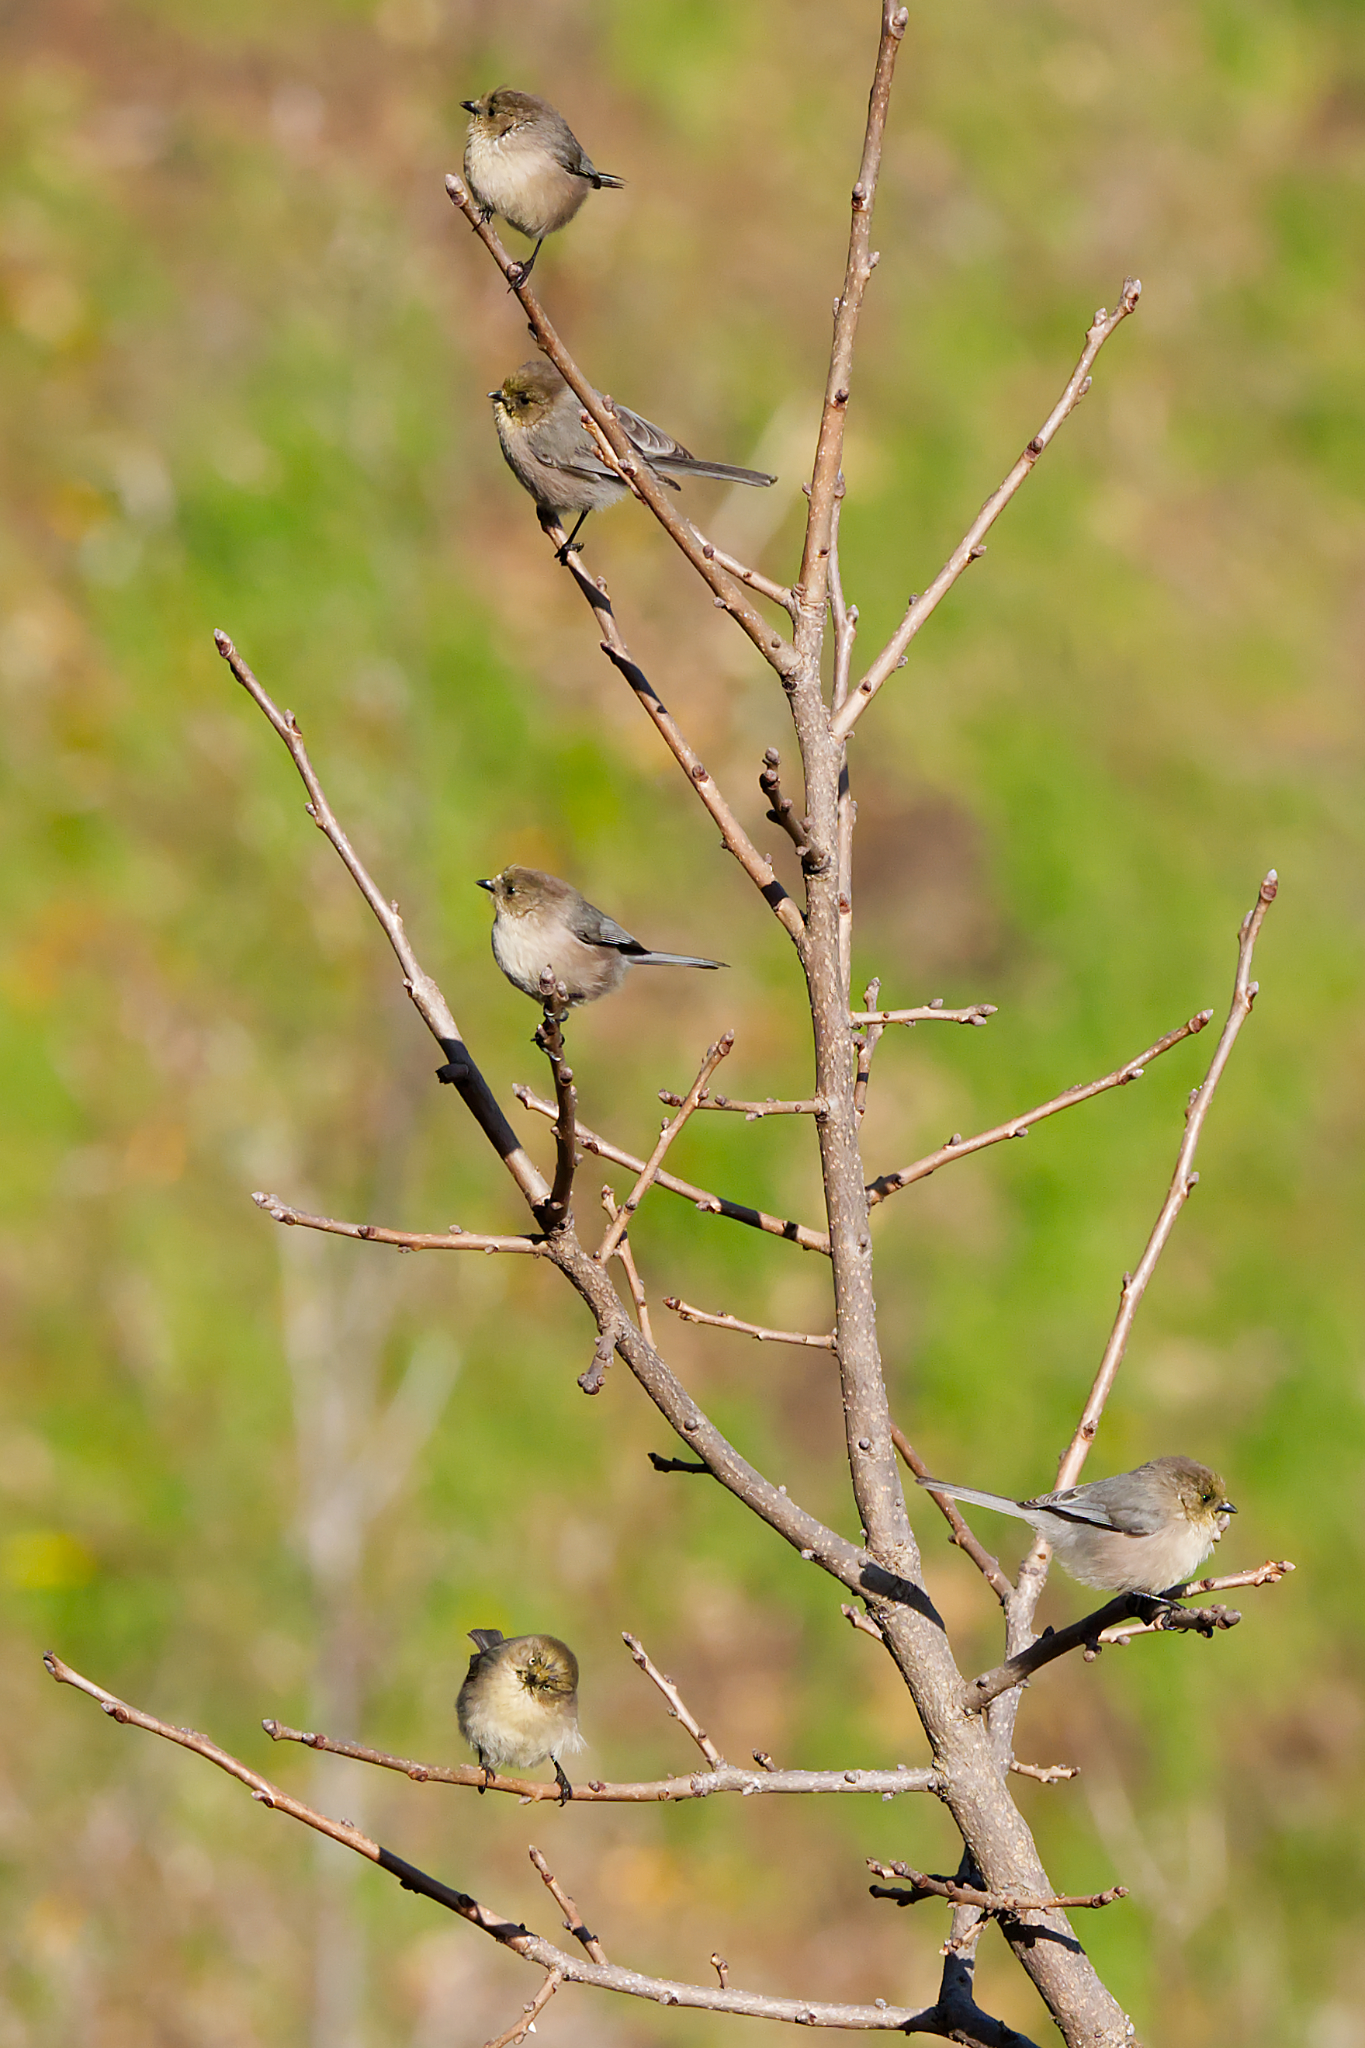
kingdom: Animalia
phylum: Chordata
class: Aves
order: Passeriformes
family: Aegithalidae
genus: Psaltriparus
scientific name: Psaltriparus minimus
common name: American bushtit
